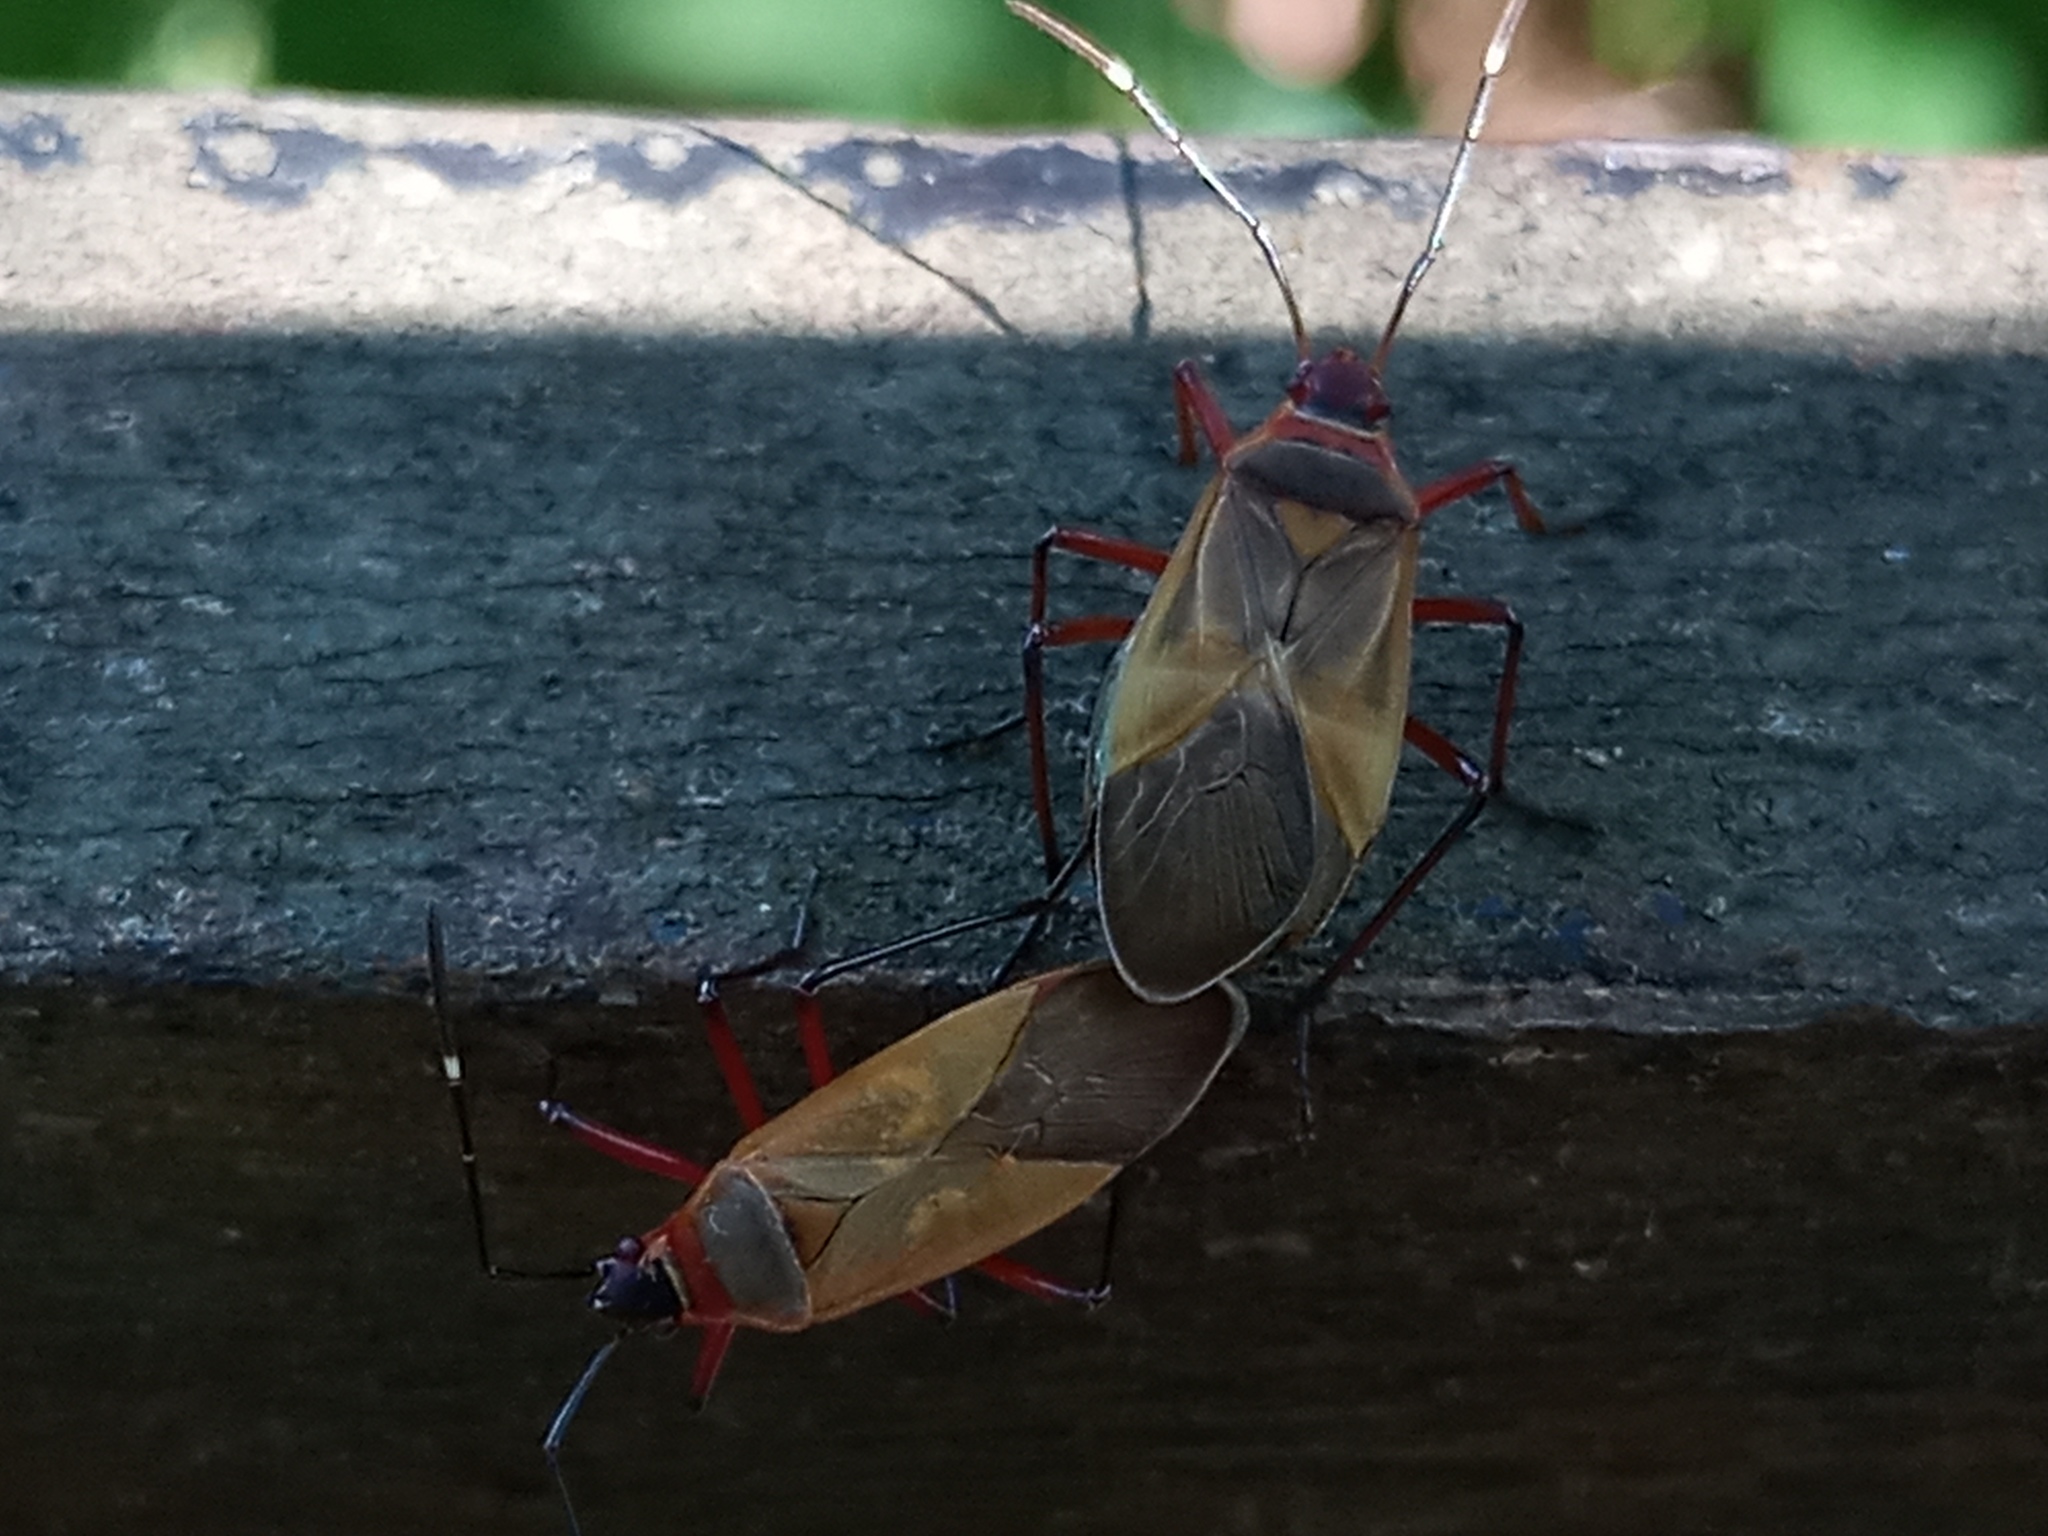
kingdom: Animalia
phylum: Arthropoda
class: Insecta
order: Hemiptera
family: Pyrrhocoridae
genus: Dysdercus
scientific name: Dysdercus
